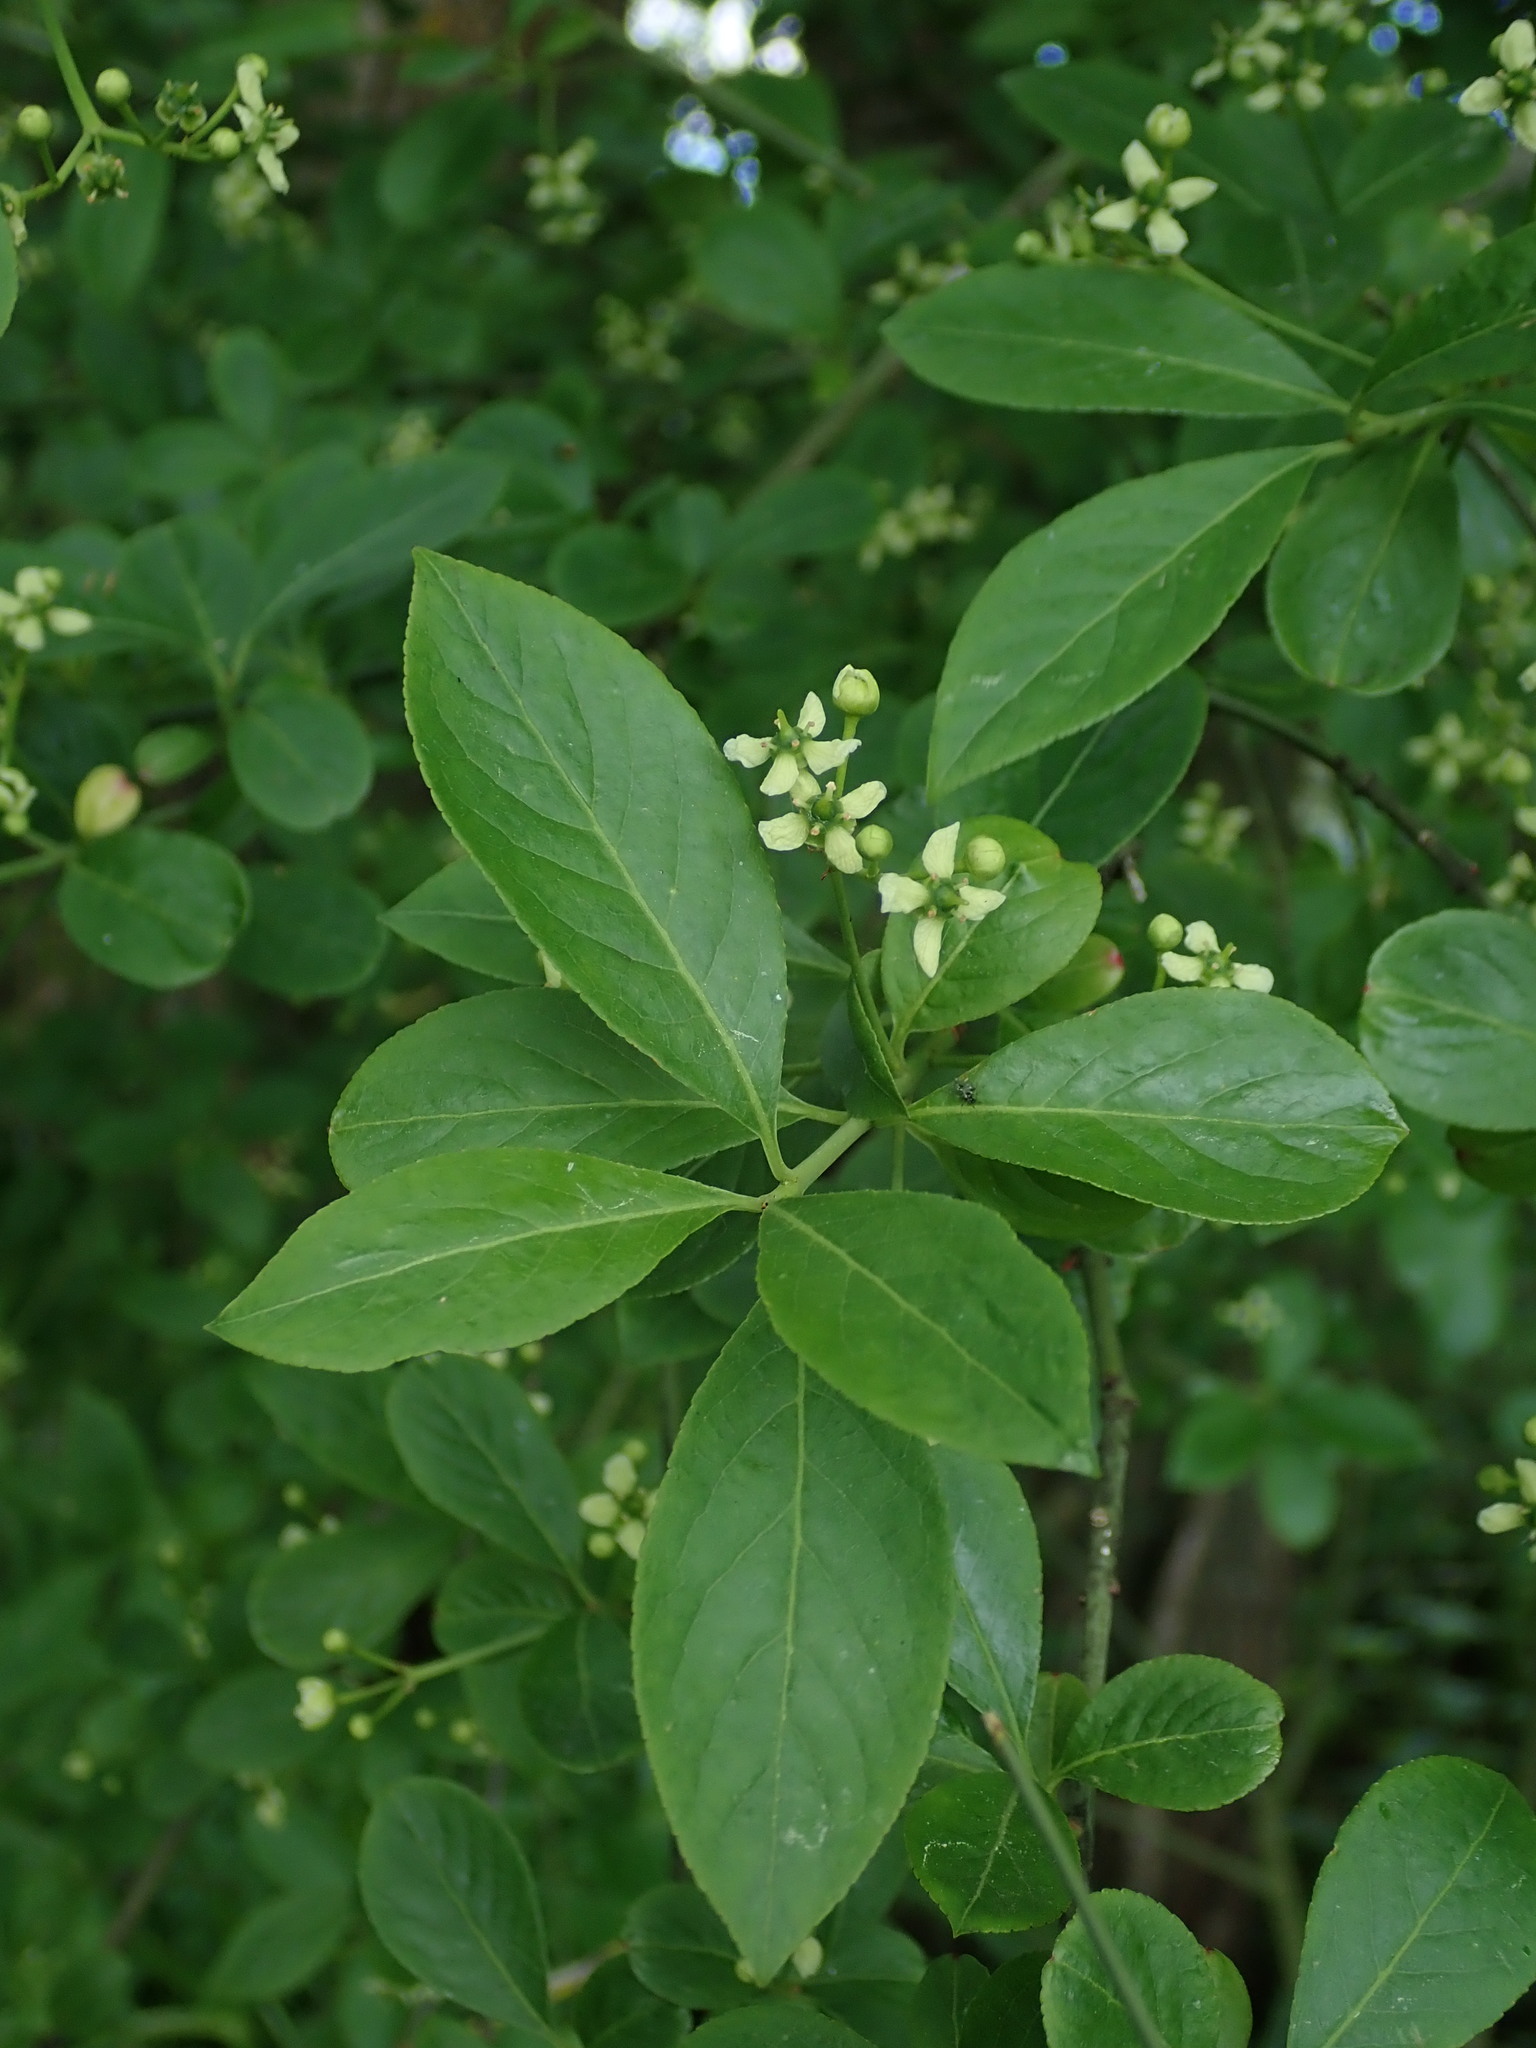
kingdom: Plantae
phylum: Tracheophyta
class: Magnoliopsida
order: Celastrales
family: Celastraceae
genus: Euonymus
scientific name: Euonymus europaeus
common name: Spindle
